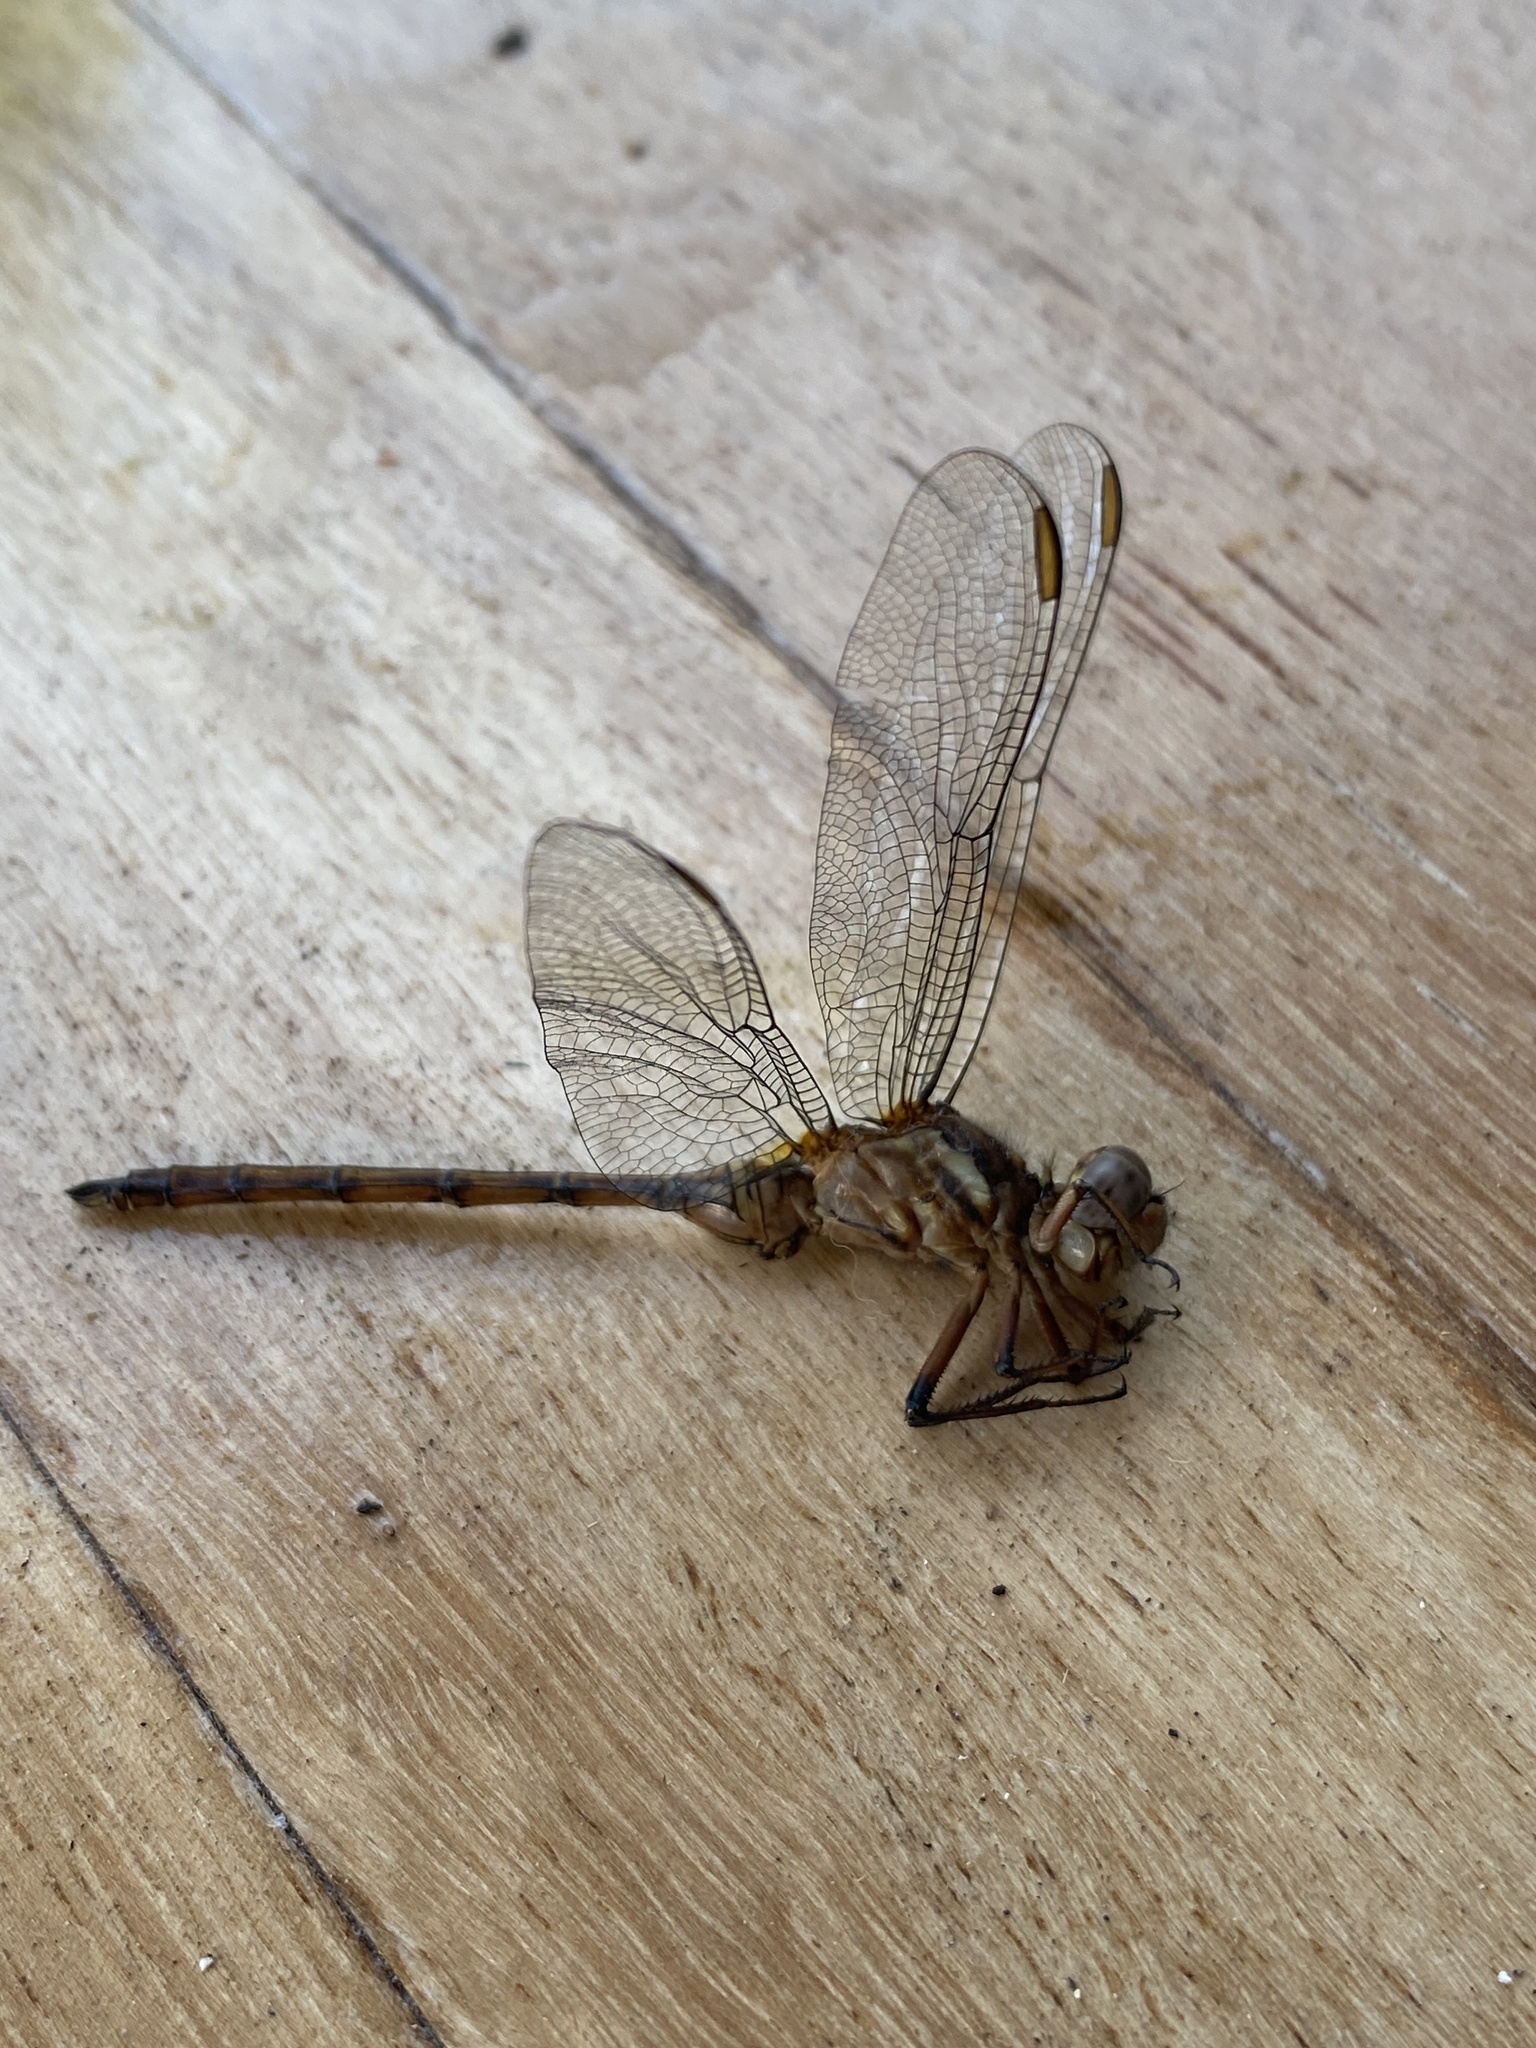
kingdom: Animalia
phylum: Arthropoda
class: Insecta
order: Odonata
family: Libellulidae
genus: Orthetrum
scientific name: Orthetrum julia
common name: Julia skimmer
